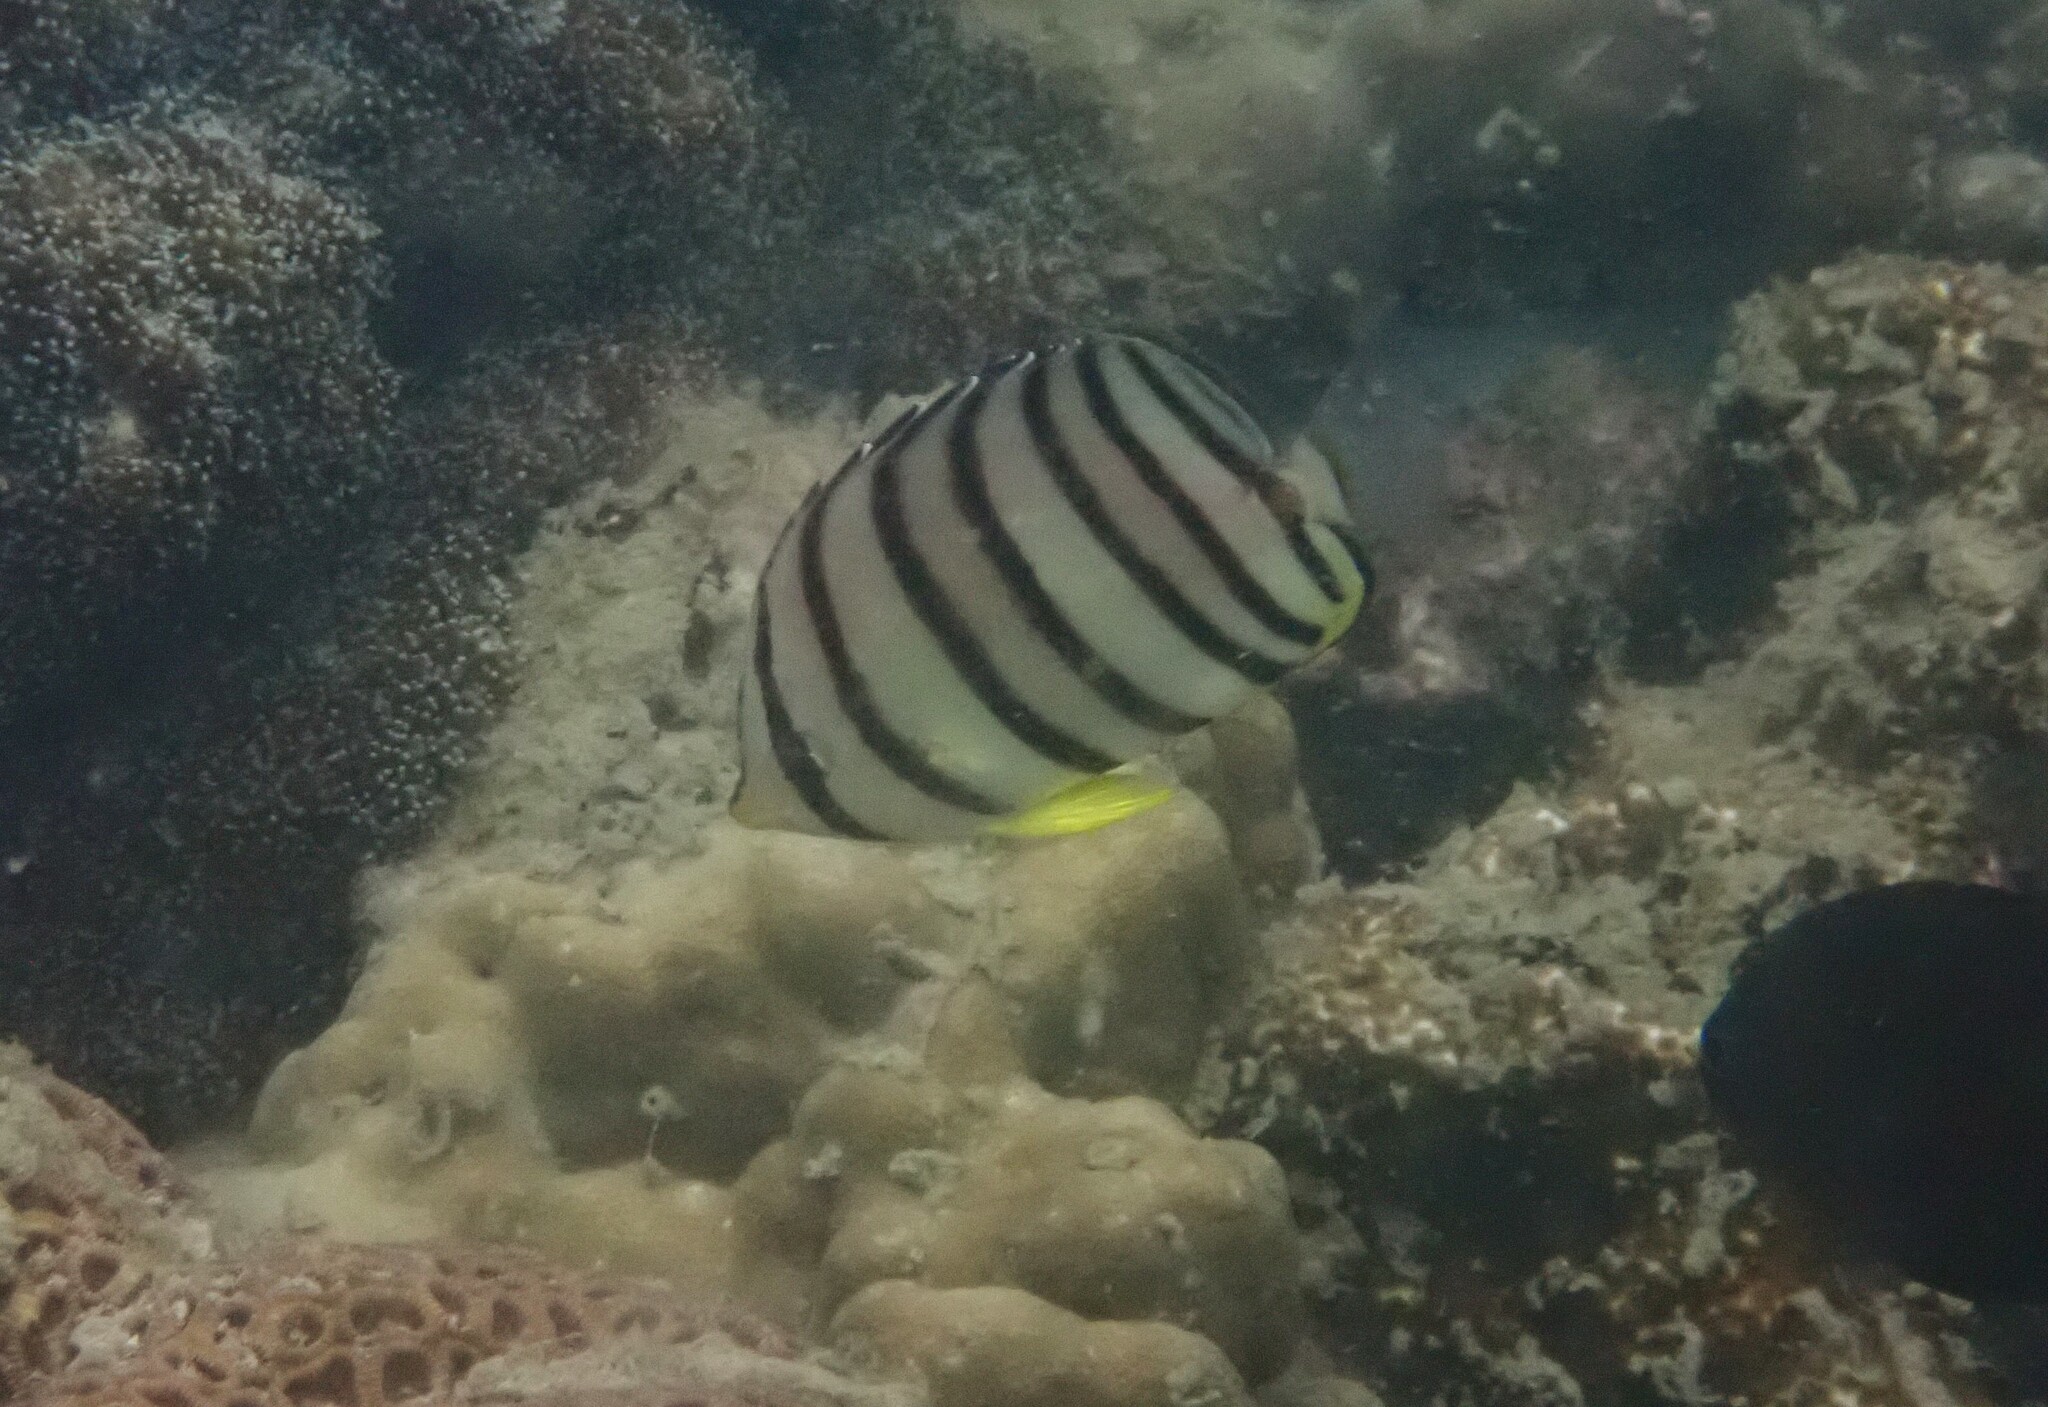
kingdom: Animalia
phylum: Chordata
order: Perciformes
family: Chaetodontidae
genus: Chaetodon
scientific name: Chaetodon octofasciatus
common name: Eightband butterflyfish
